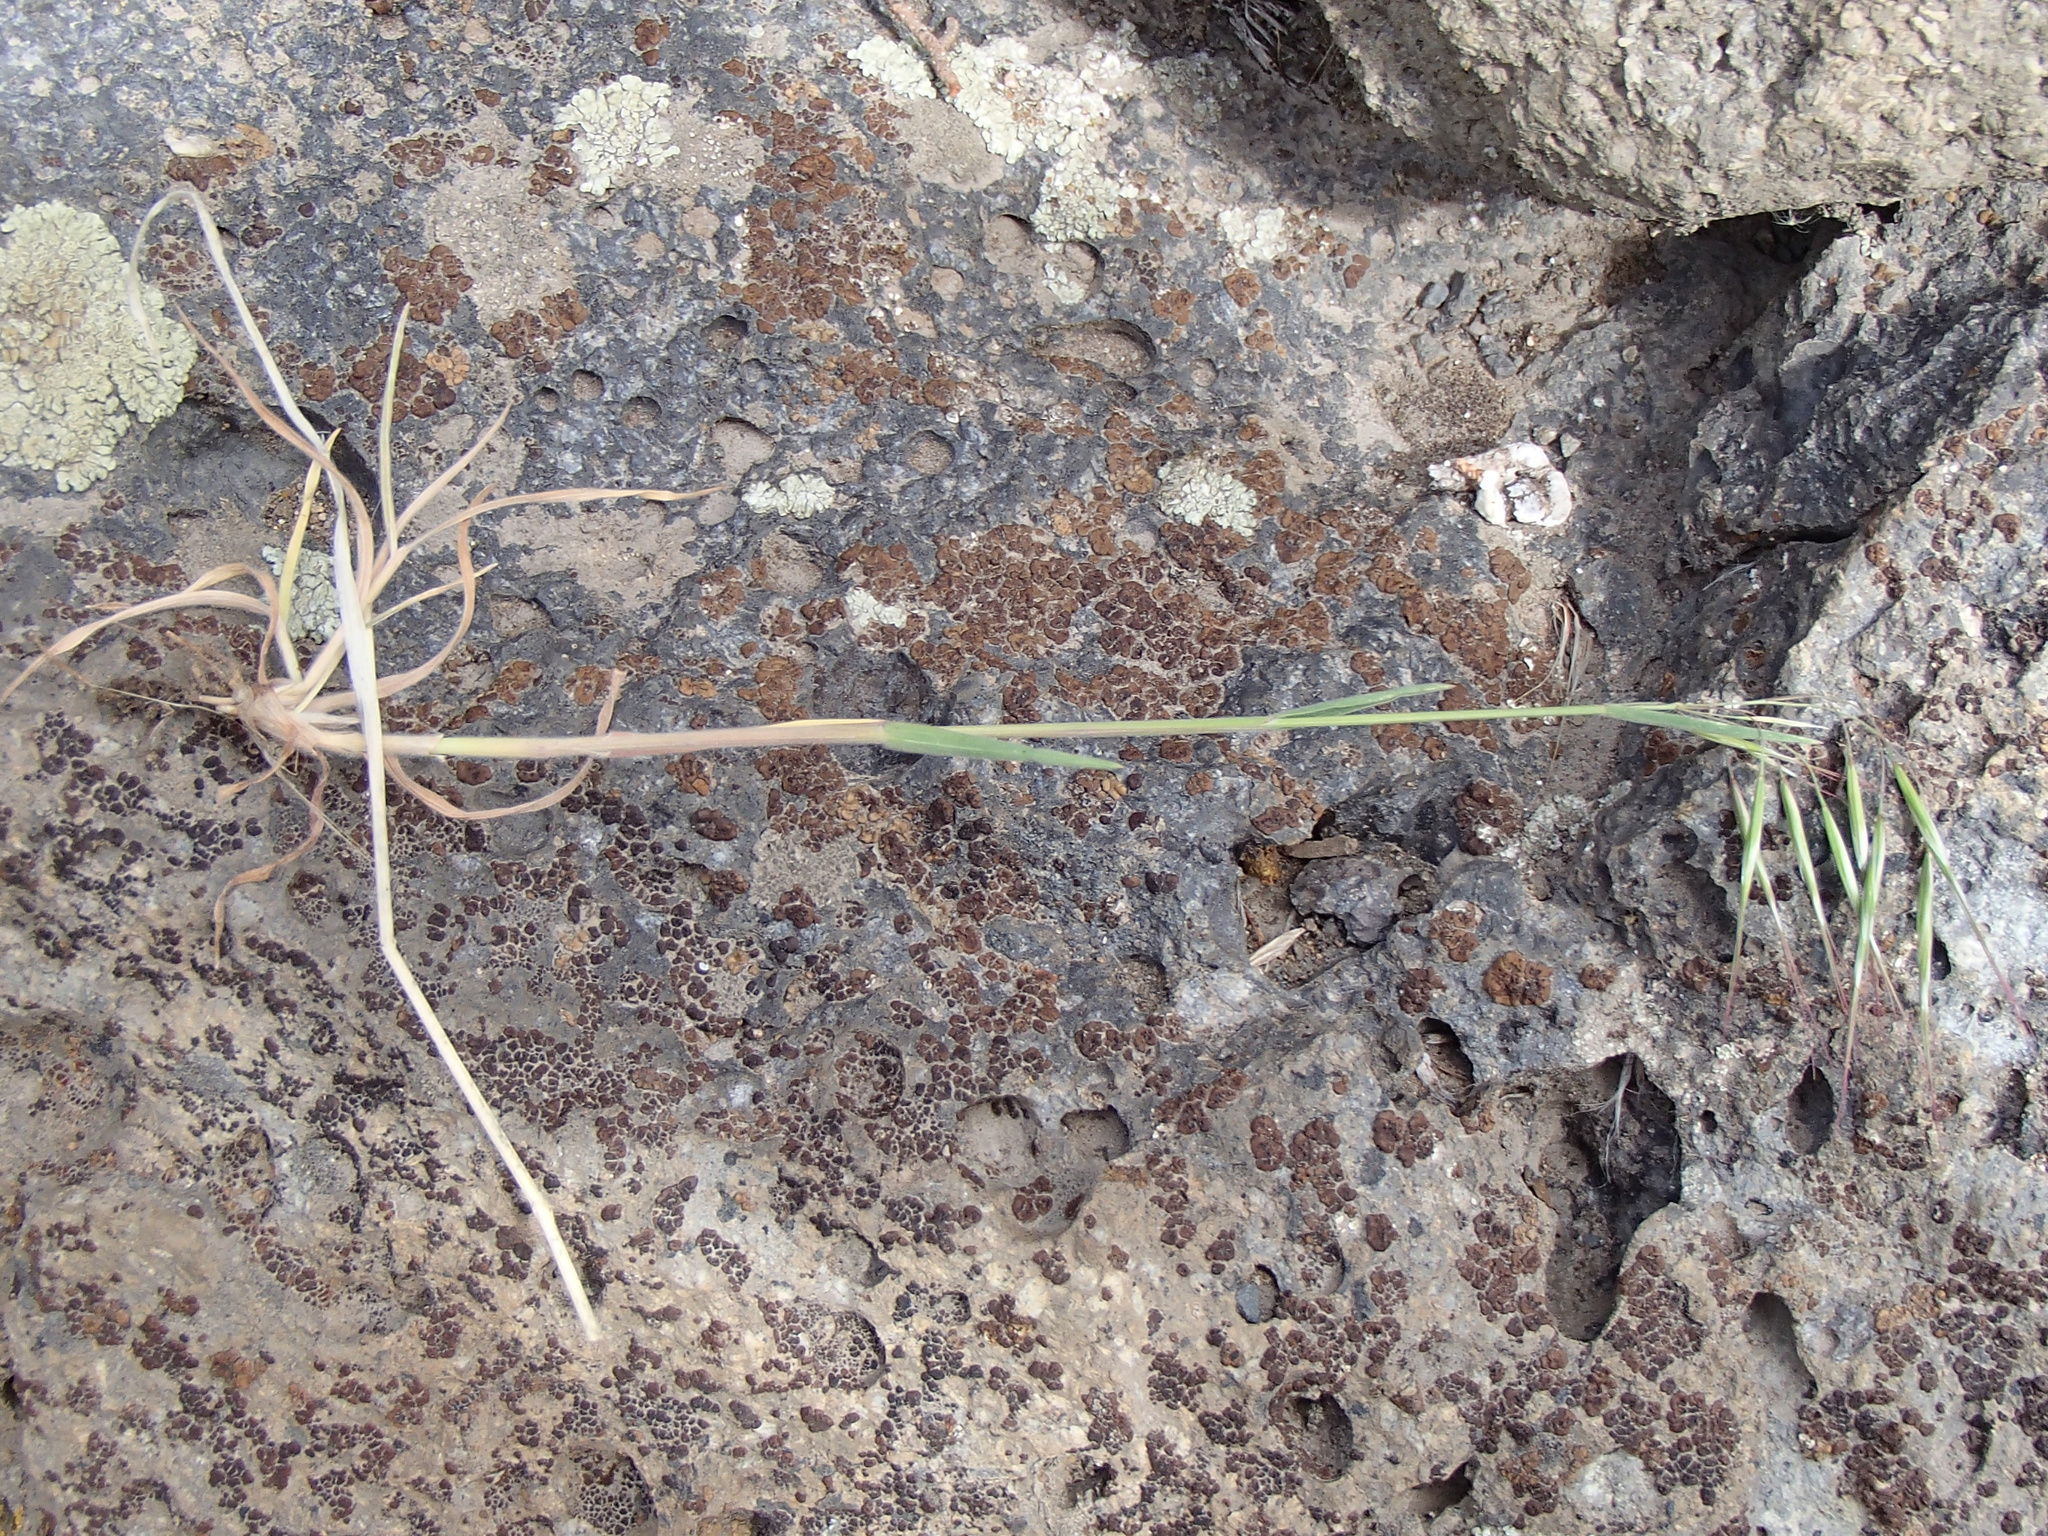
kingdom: Plantae
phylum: Tracheophyta
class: Liliopsida
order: Poales
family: Poaceae
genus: Bromus
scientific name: Bromus tectorum
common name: Cheatgrass
